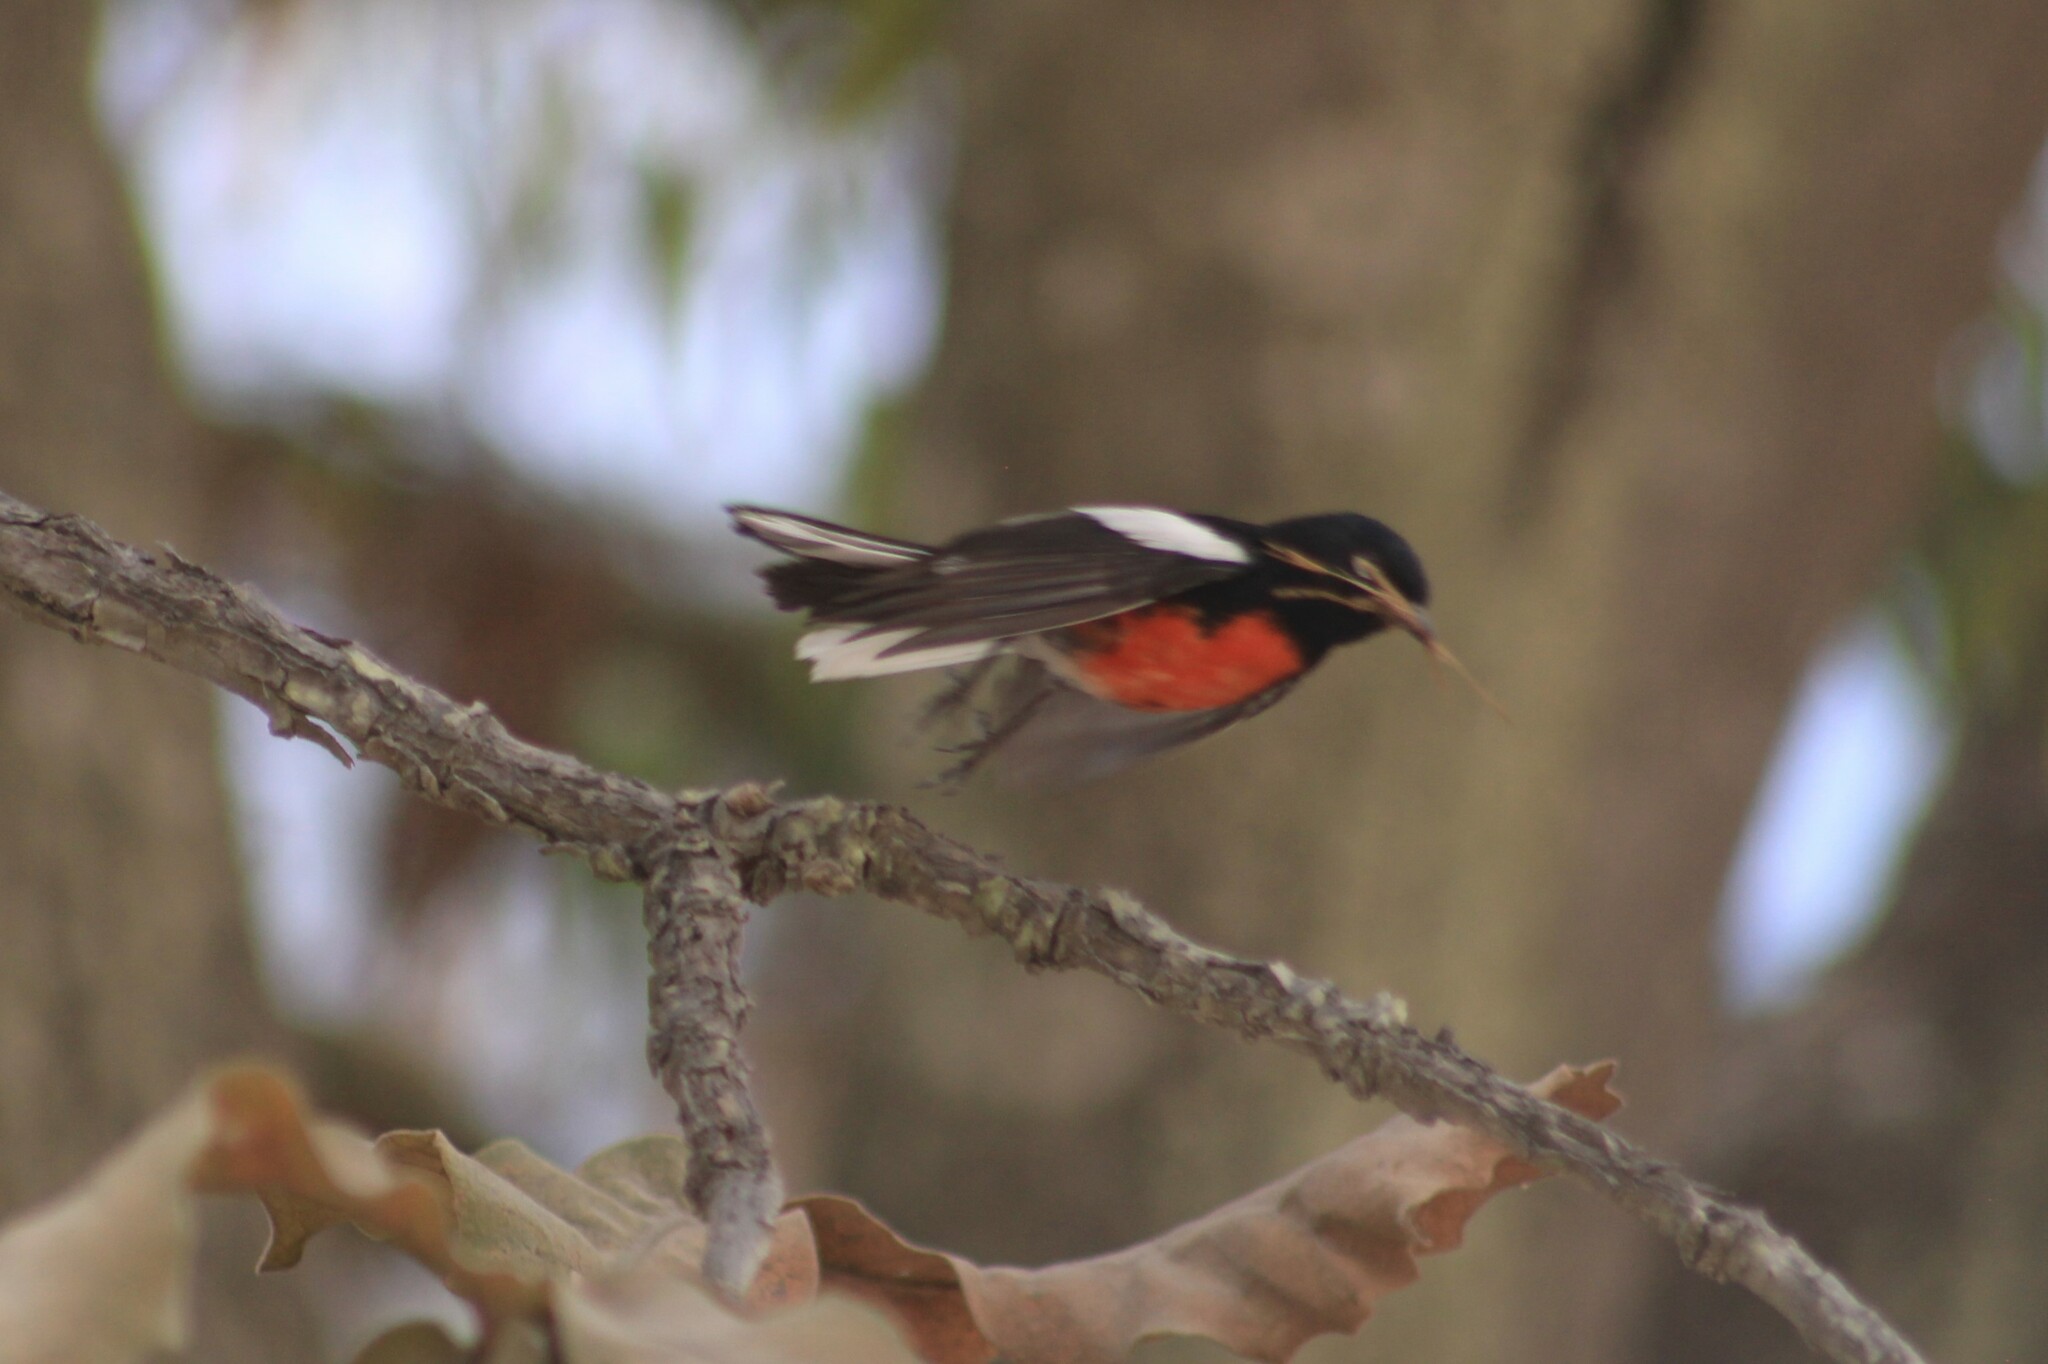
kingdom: Animalia
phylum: Chordata
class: Aves
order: Passeriformes
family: Parulidae
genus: Myioborus
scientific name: Myioborus pictus
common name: Painted whitestart
